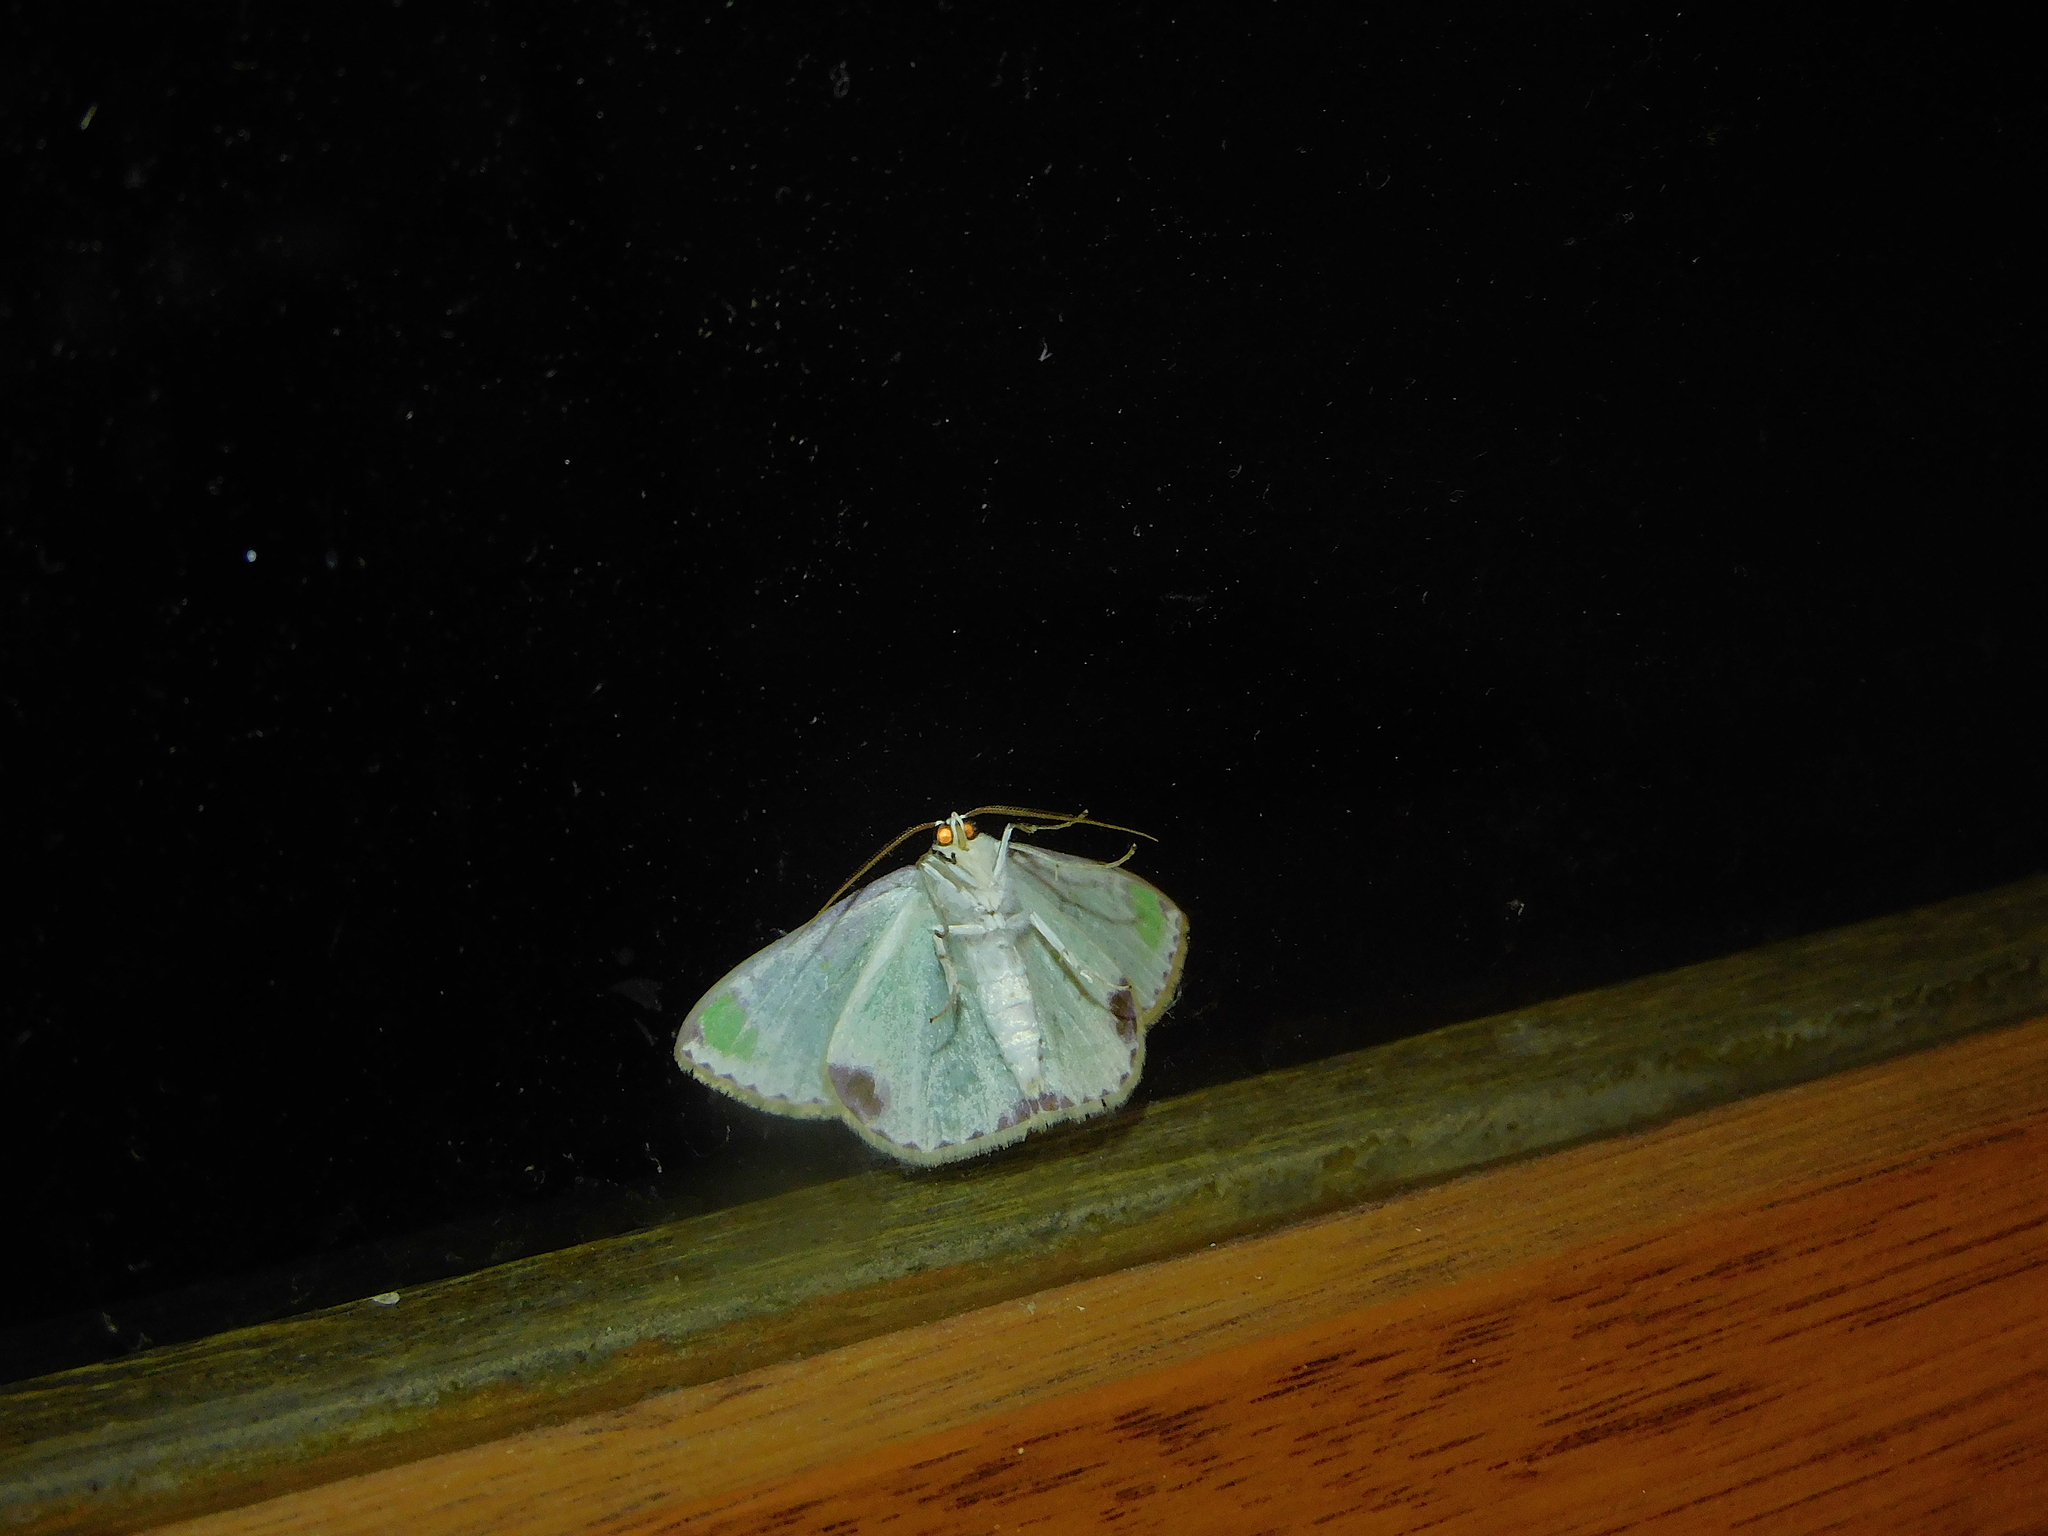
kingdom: Animalia
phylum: Arthropoda
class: Insecta
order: Lepidoptera
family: Geometridae
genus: Eucyclodes
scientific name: Eucyclodes buprestaria
